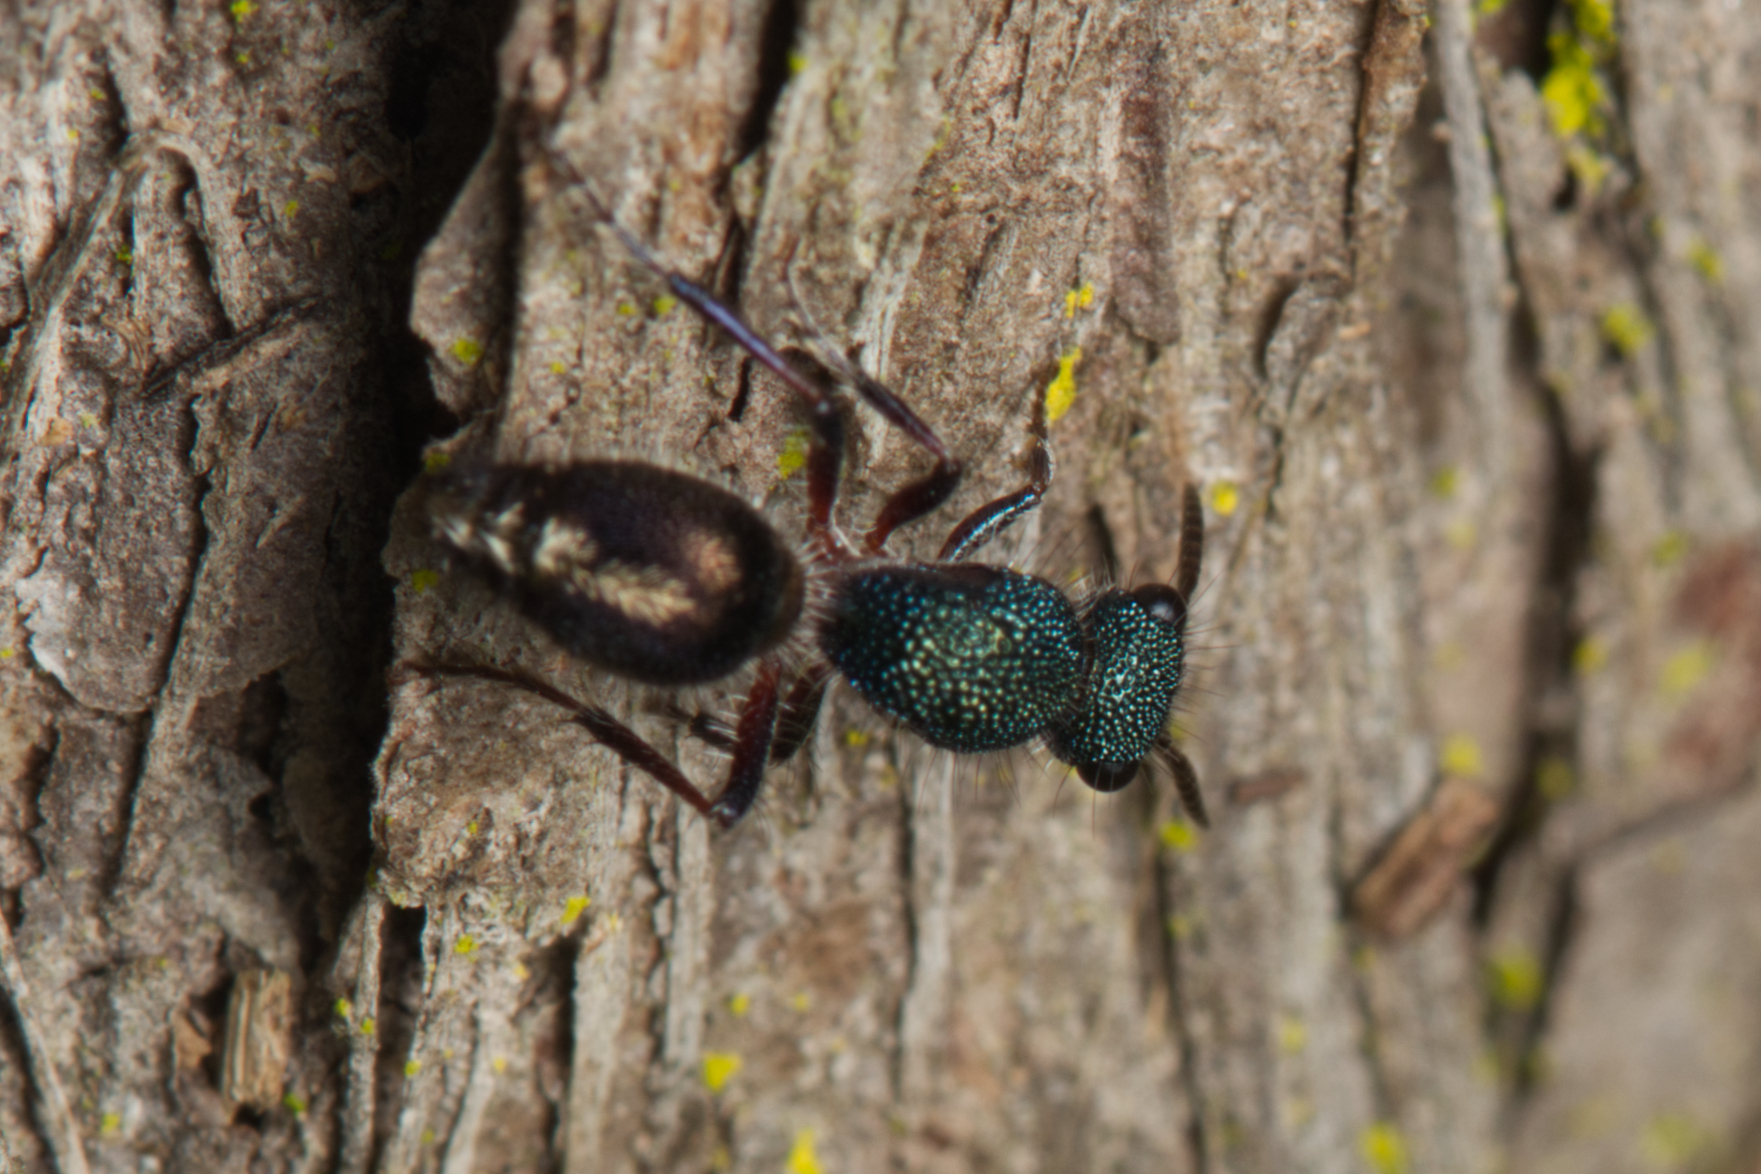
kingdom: Animalia
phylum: Arthropoda
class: Insecta
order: Hymenoptera
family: Mutillidae
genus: Ephutomorpha
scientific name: Ephutomorpha
